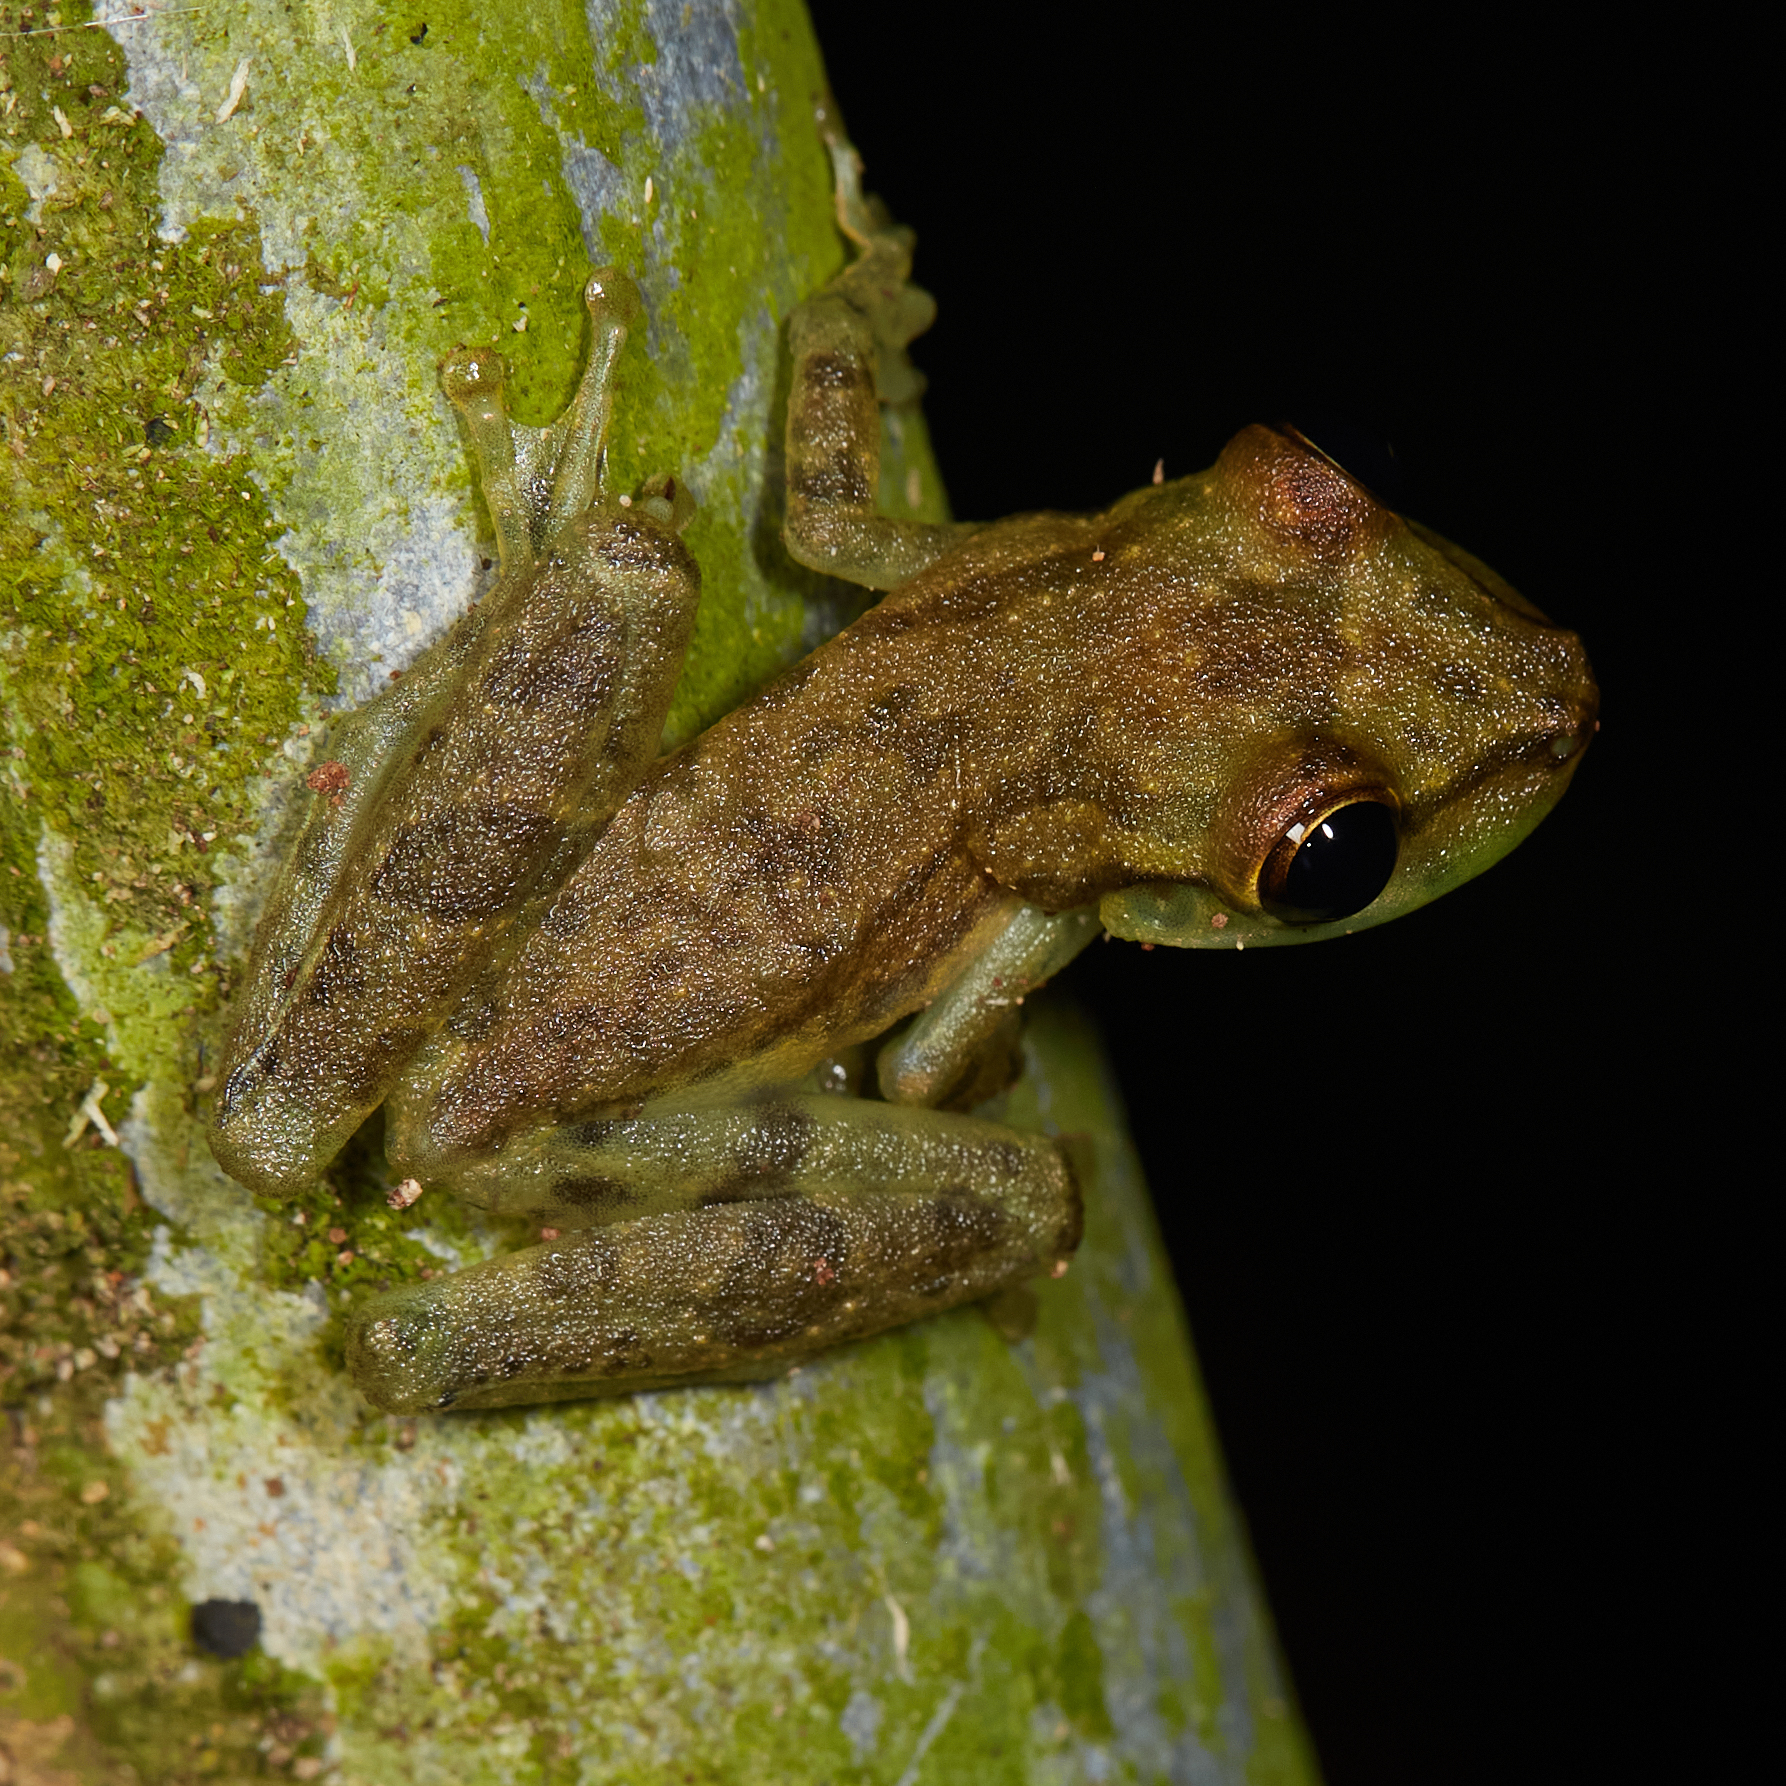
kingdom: Animalia
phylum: Chordata
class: Amphibia
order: Anura
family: Hylidae
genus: Scinax
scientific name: Scinax elaeochroa
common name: Sipurio snouted treefrog
